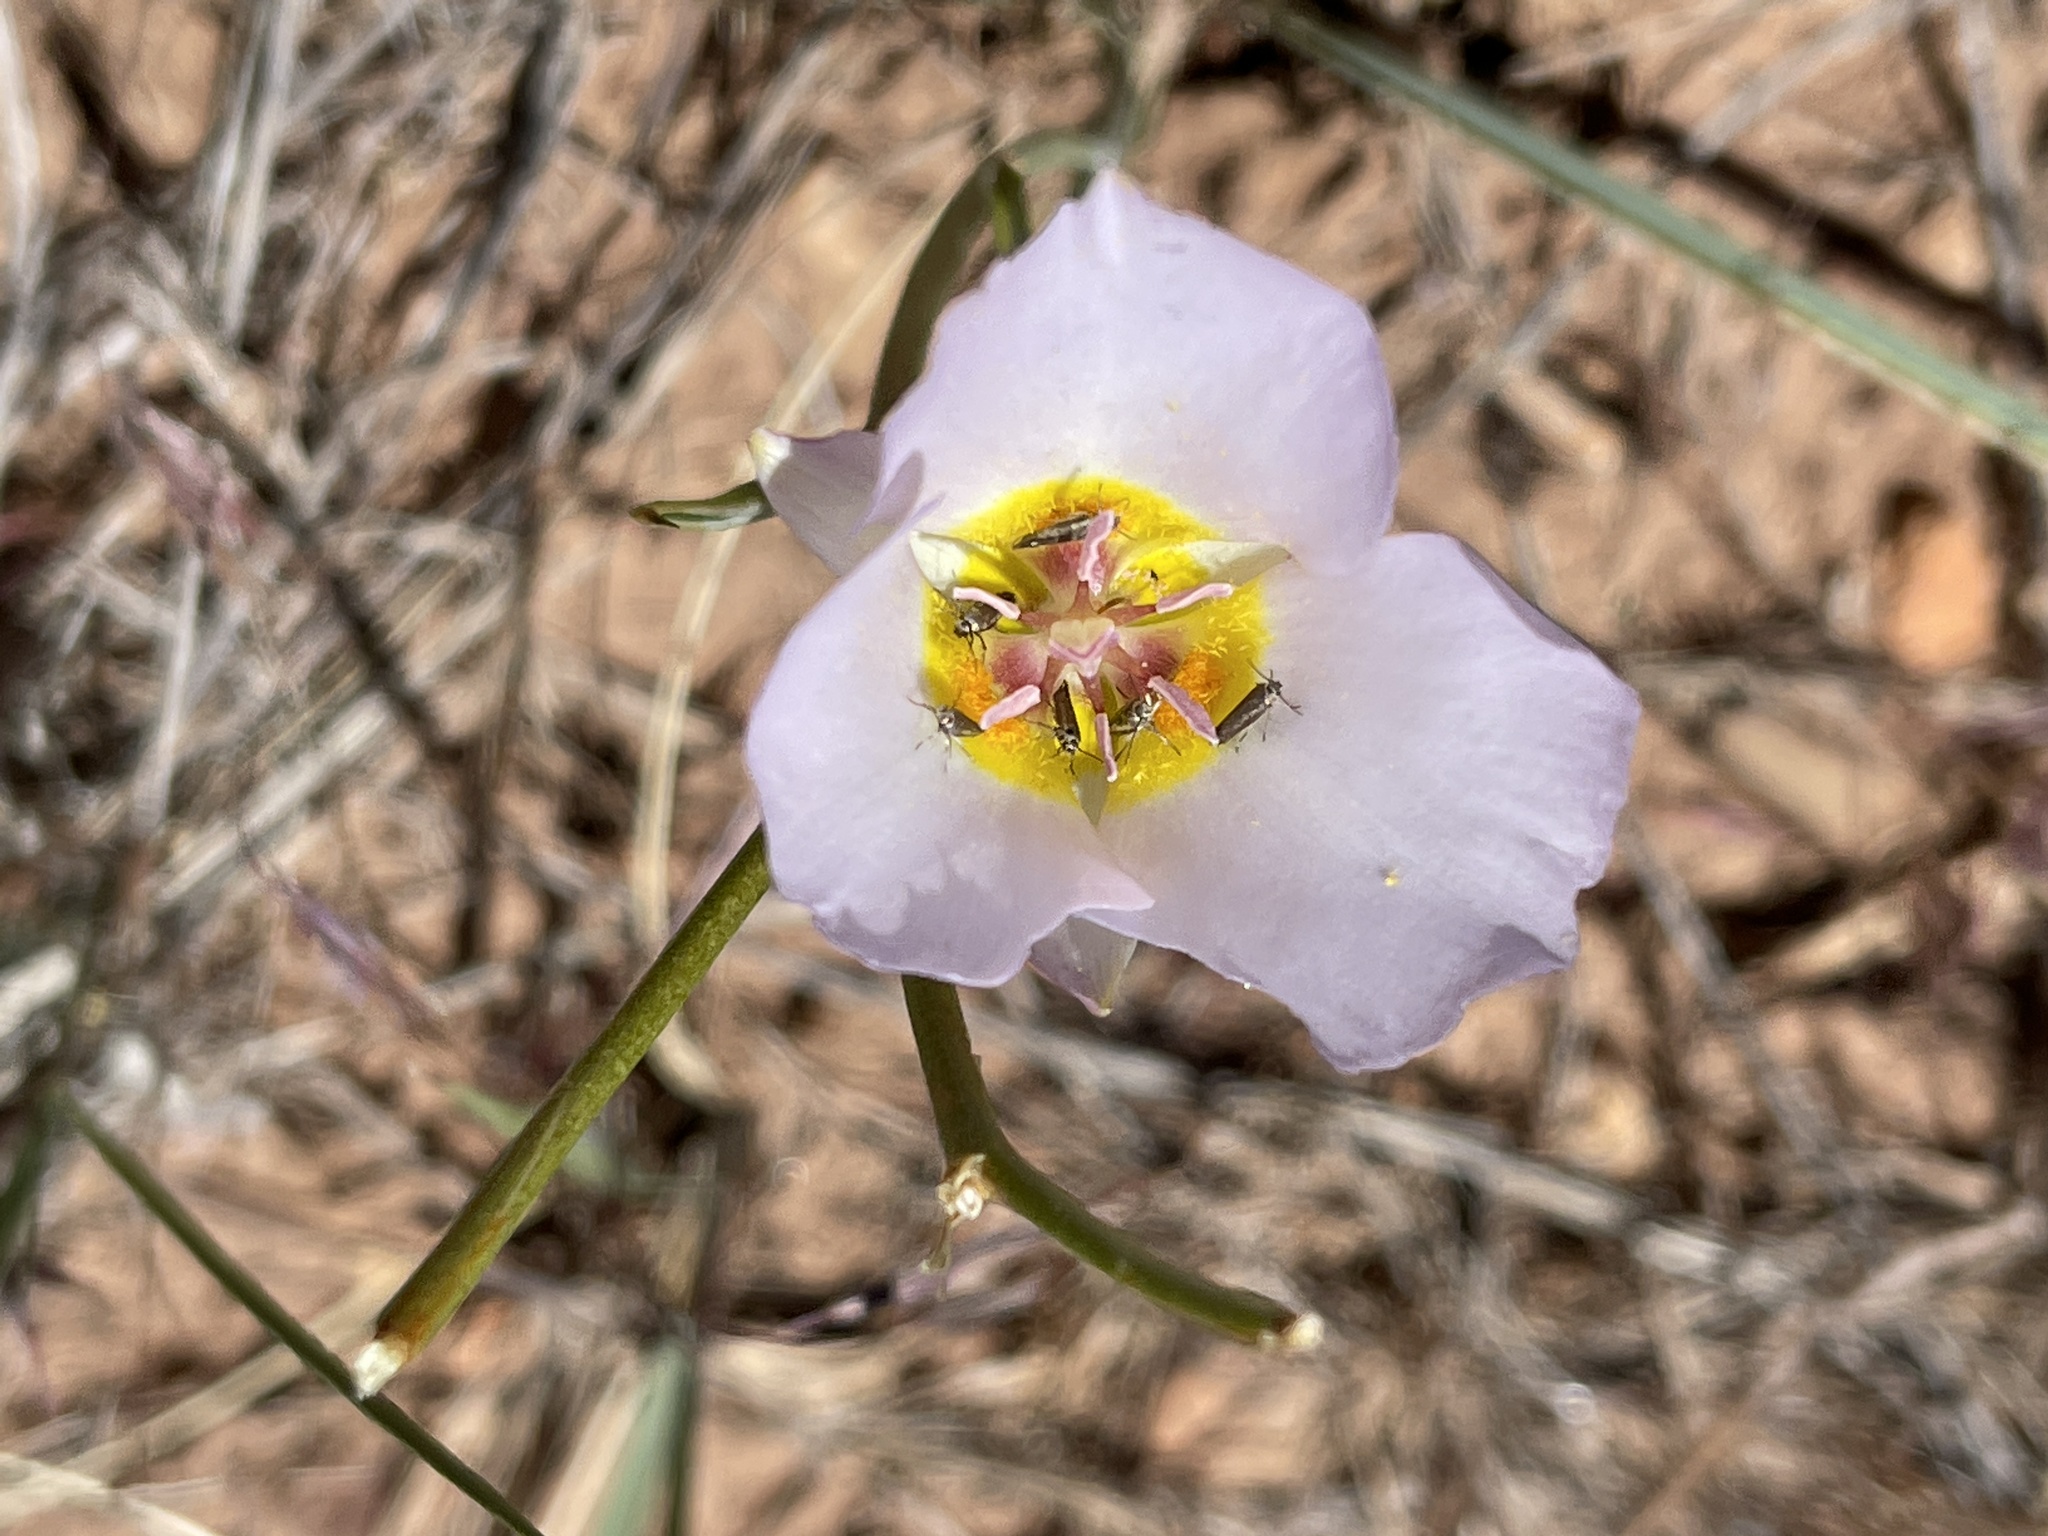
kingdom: Plantae
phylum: Tracheophyta
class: Liliopsida
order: Liliales
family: Liliaceae
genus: Calochortus
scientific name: Calochortus flexuosus
